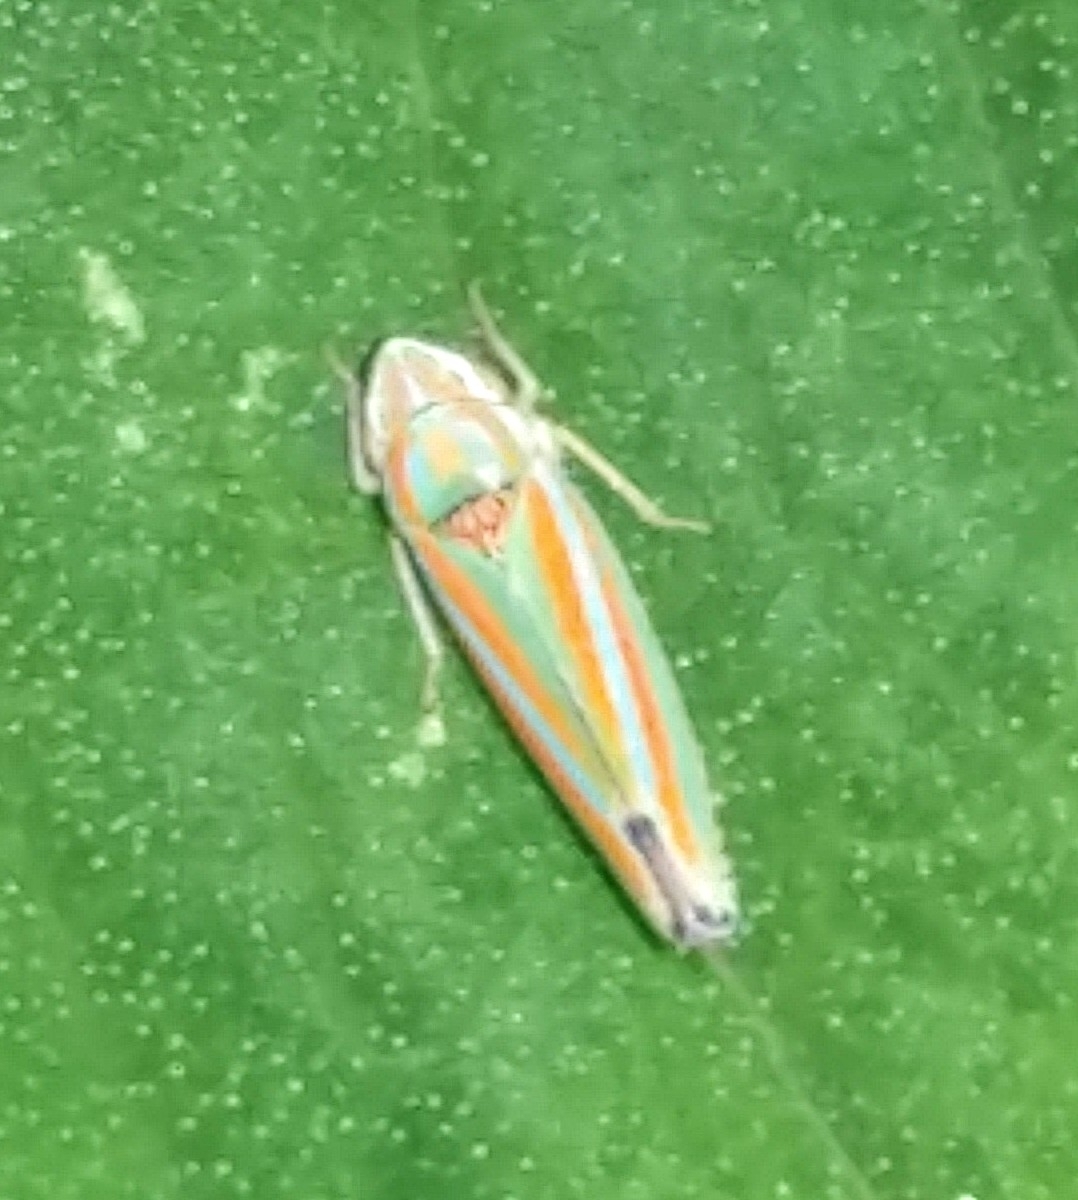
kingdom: Animalia
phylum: Arthropoda
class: Insecta
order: Hemiptera
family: Cicadellidae
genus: Graphocephala
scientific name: Graphocephala versuta
